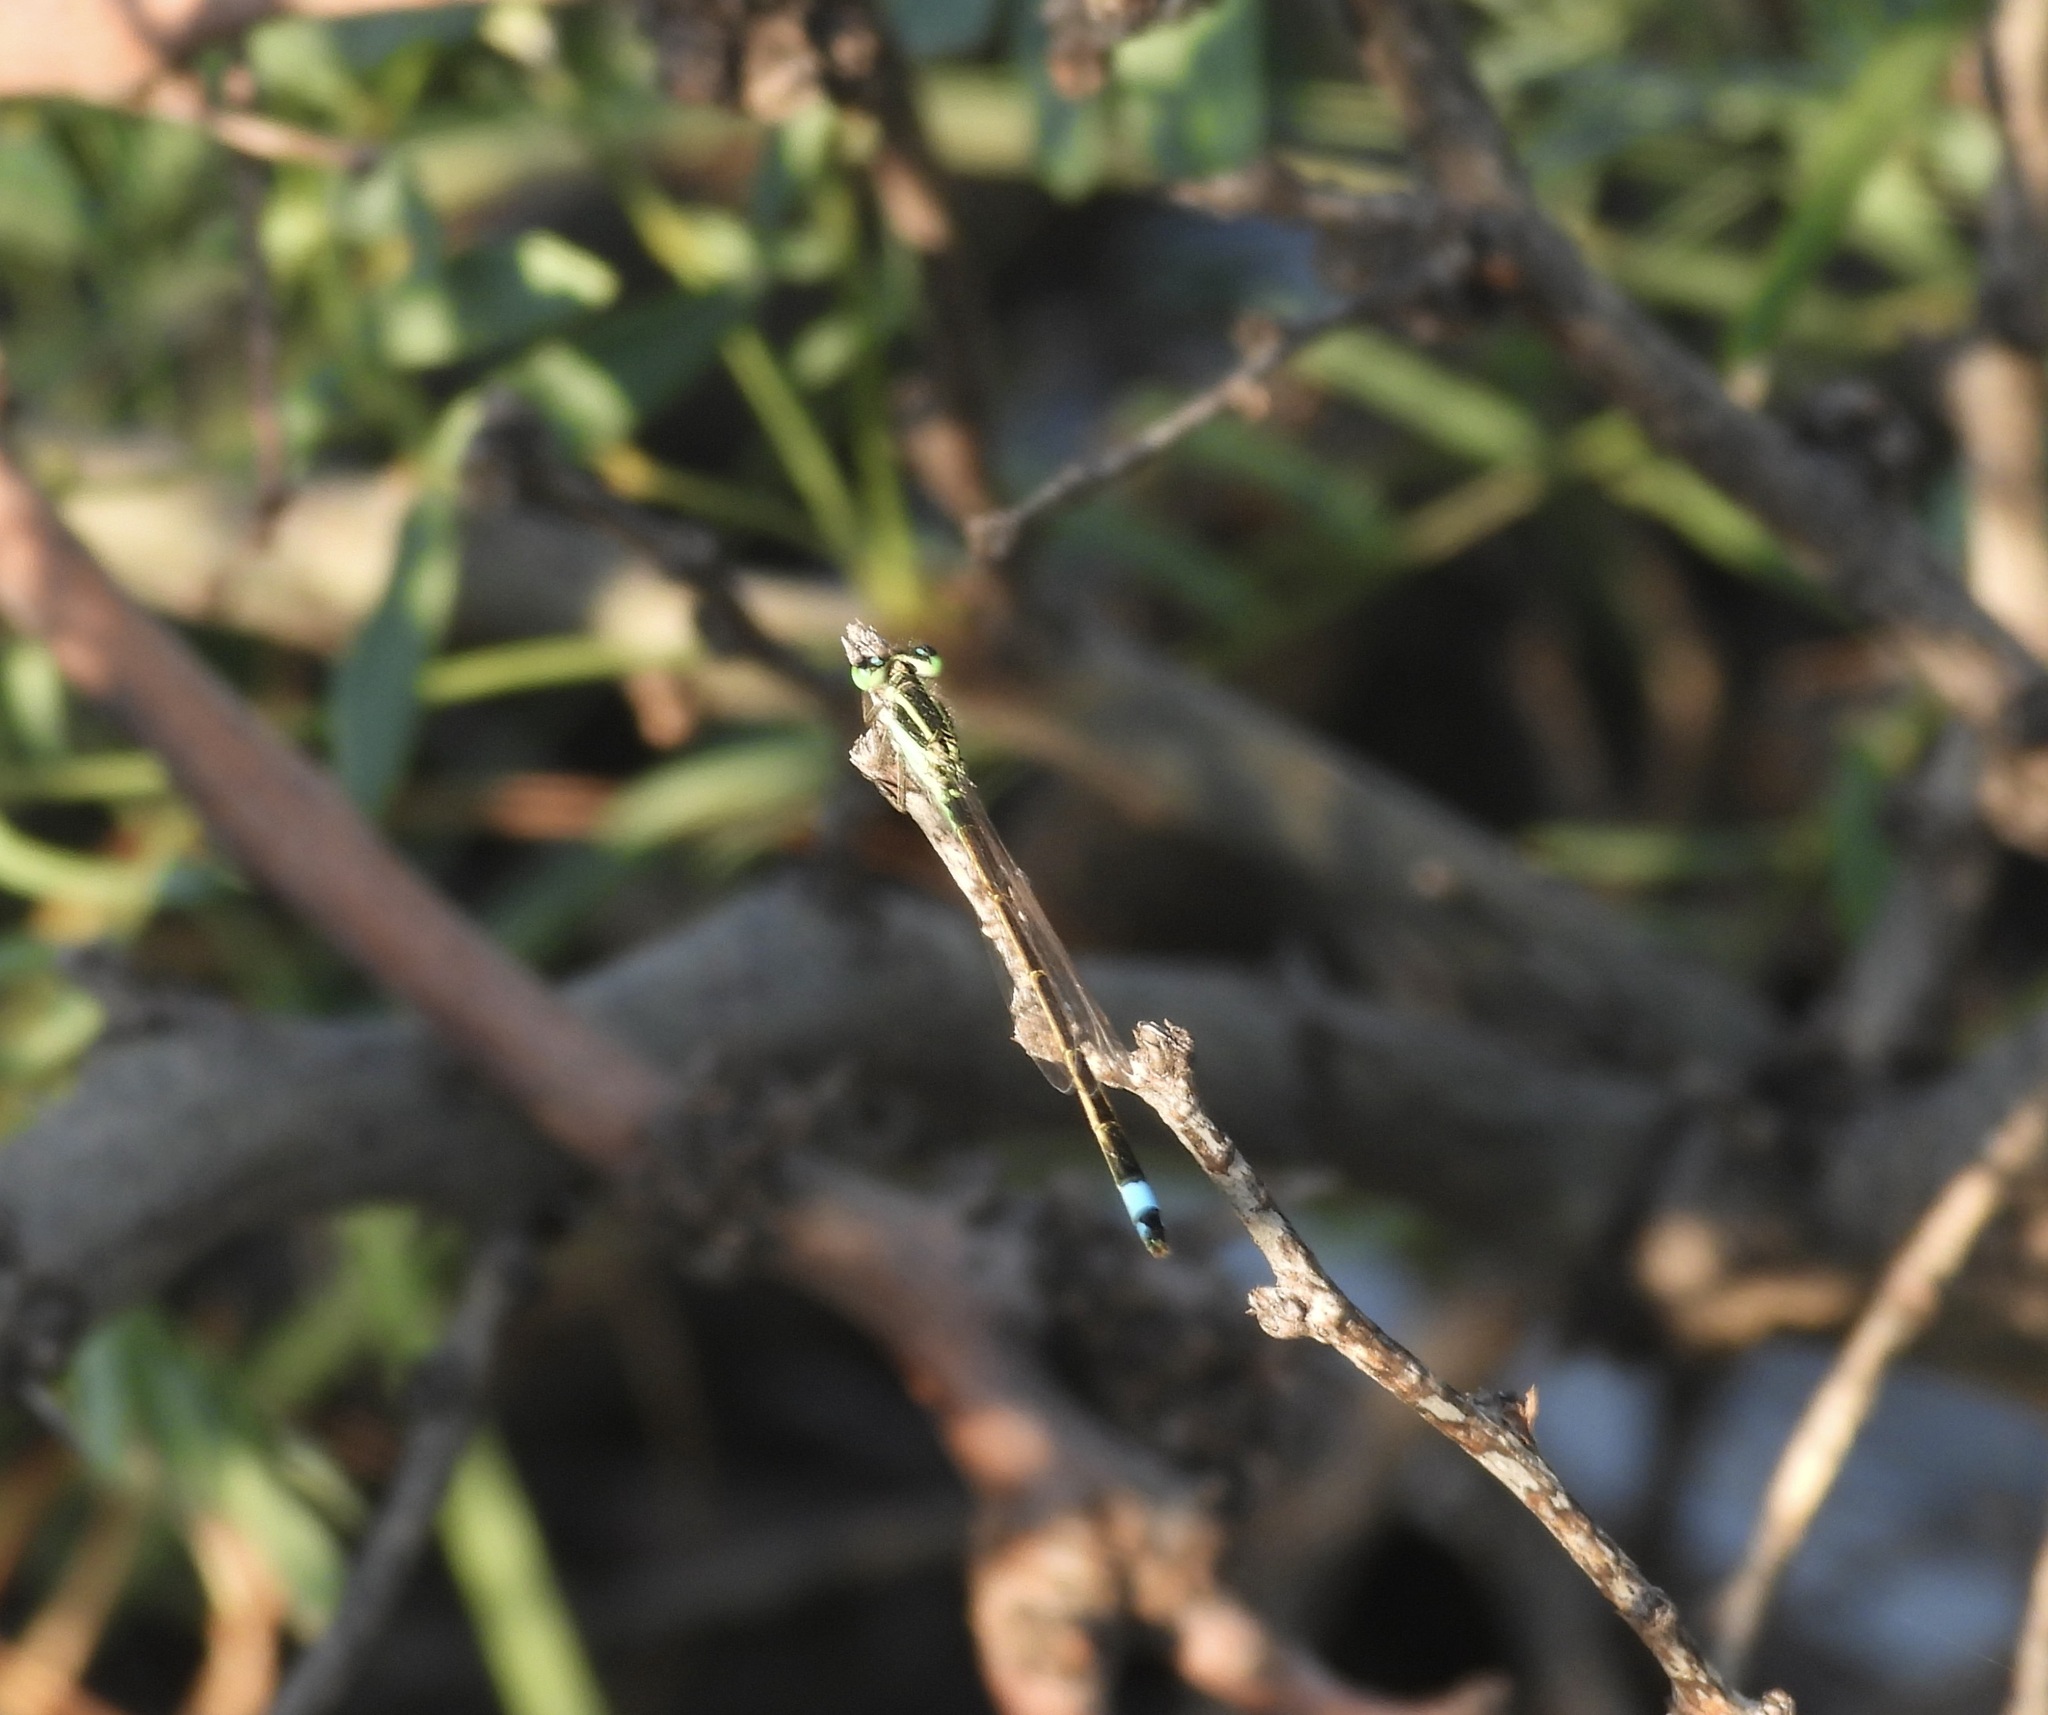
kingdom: Animalia
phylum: Arthropoda
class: Insecta
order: Odonata
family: Coenagrionidae
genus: Ischnura
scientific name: Ischnura ramburii
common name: Rambur's forktail
